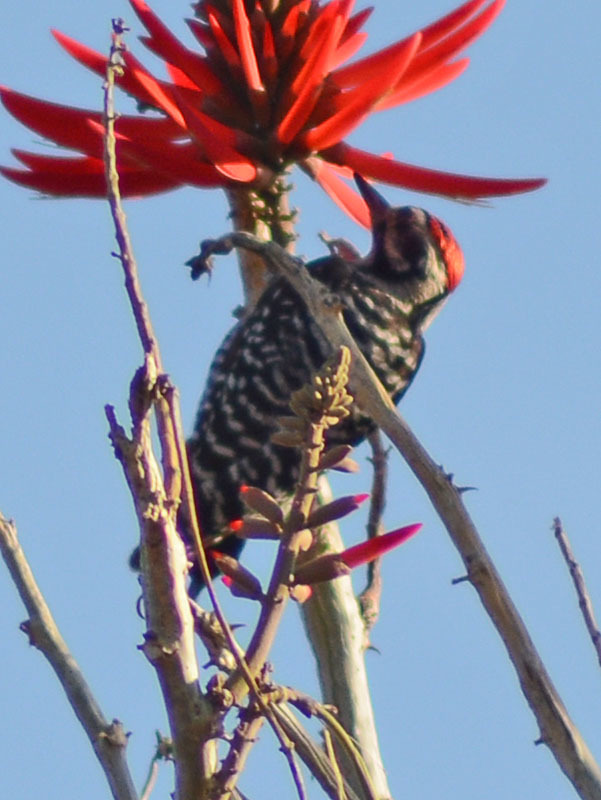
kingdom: Animalia
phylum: Chordata
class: Aves
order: Piciformes
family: Picidae
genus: Dryobates
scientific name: Dryobates scalaris
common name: Ladder-backed woodpecker
